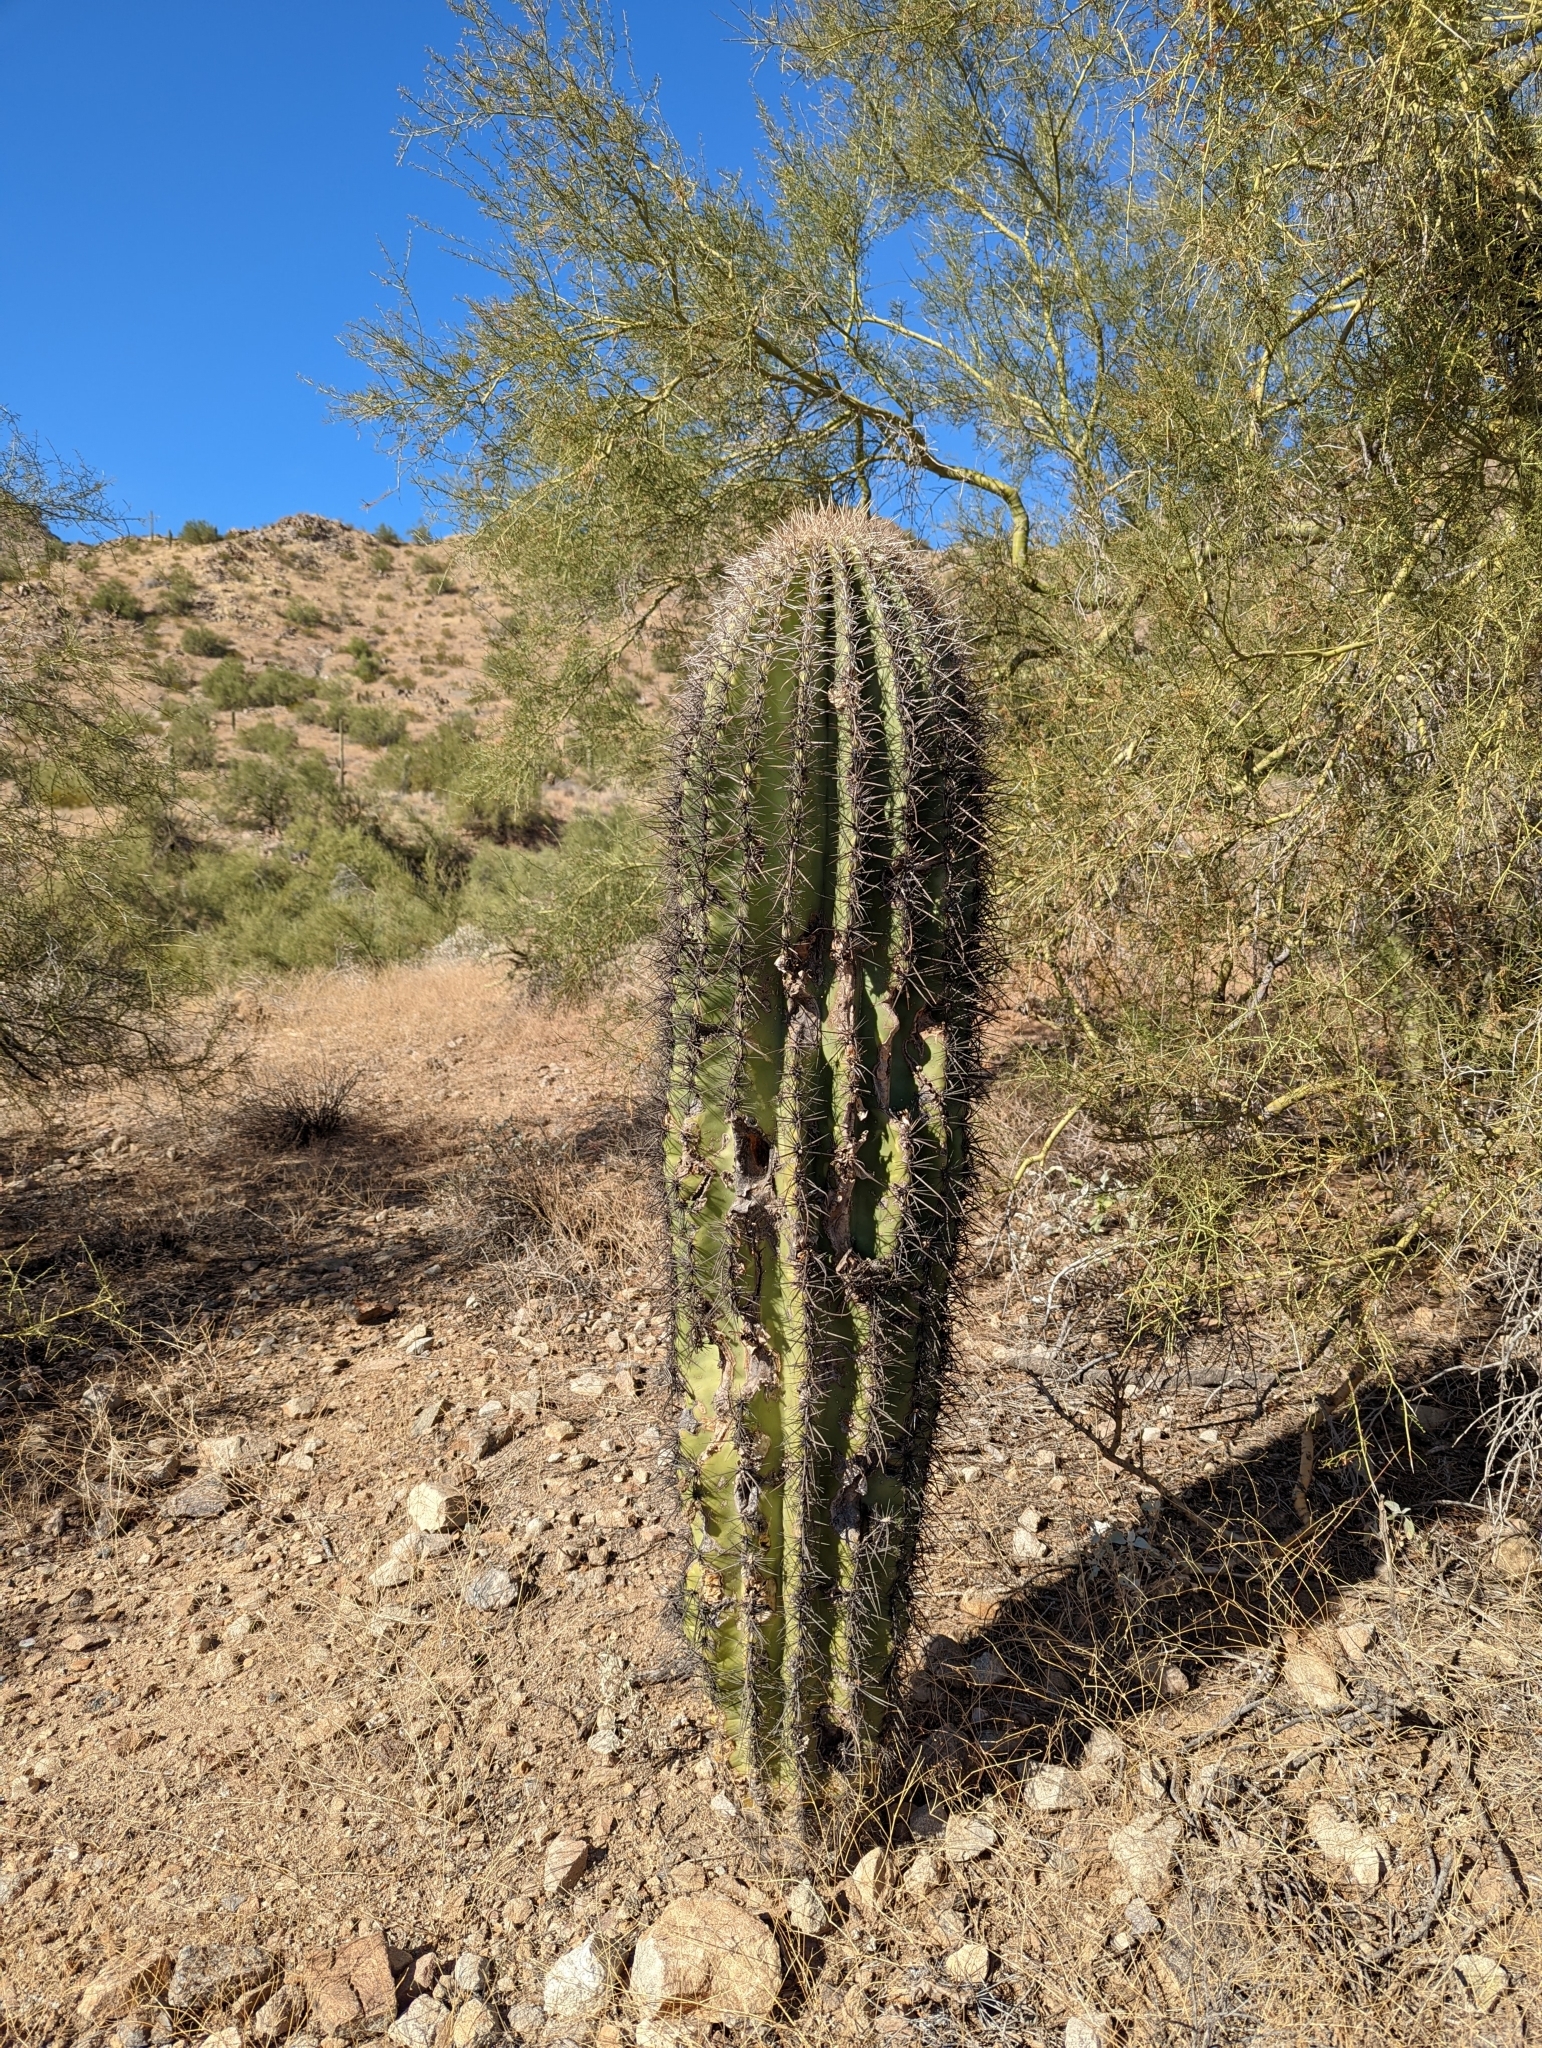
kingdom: Plantae
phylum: Tracheophyta
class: Magnoliopsida
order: Caryophyllales
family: Cactaceae
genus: Carnegiea
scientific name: Carnegiea gigantea
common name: Saguaro
